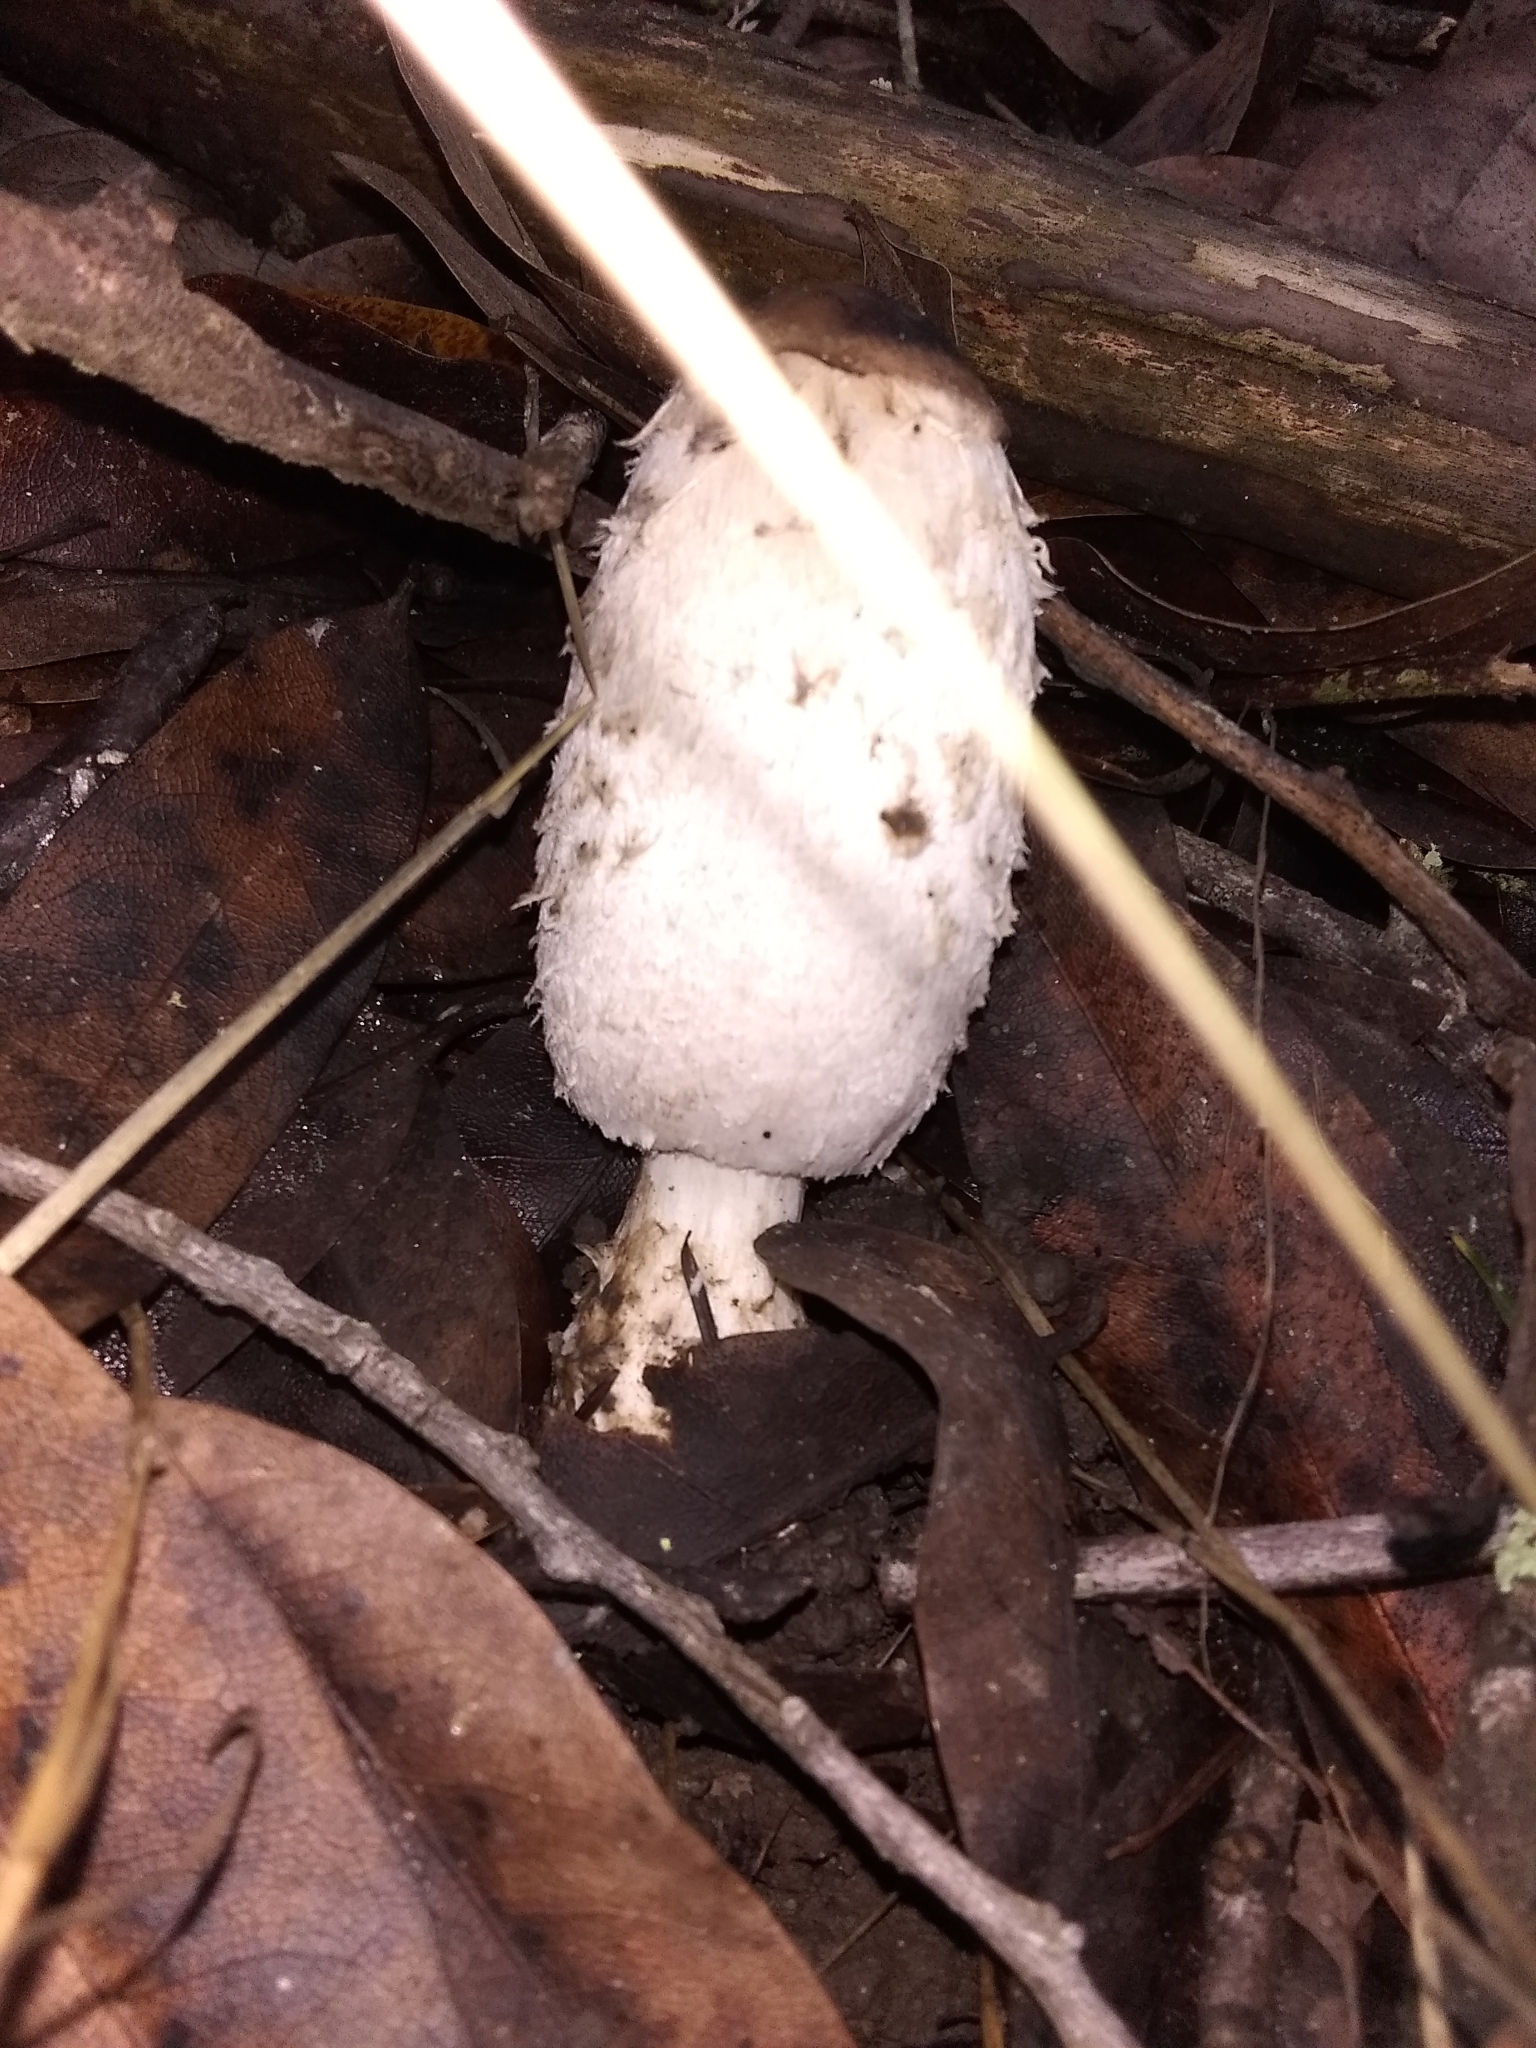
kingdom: Fungi
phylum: Basidiomycota
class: Agaricomycetes
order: Agaricales
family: Agaricaceae
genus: Coprinus
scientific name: Coprinus comatus
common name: Lawyer's wig
